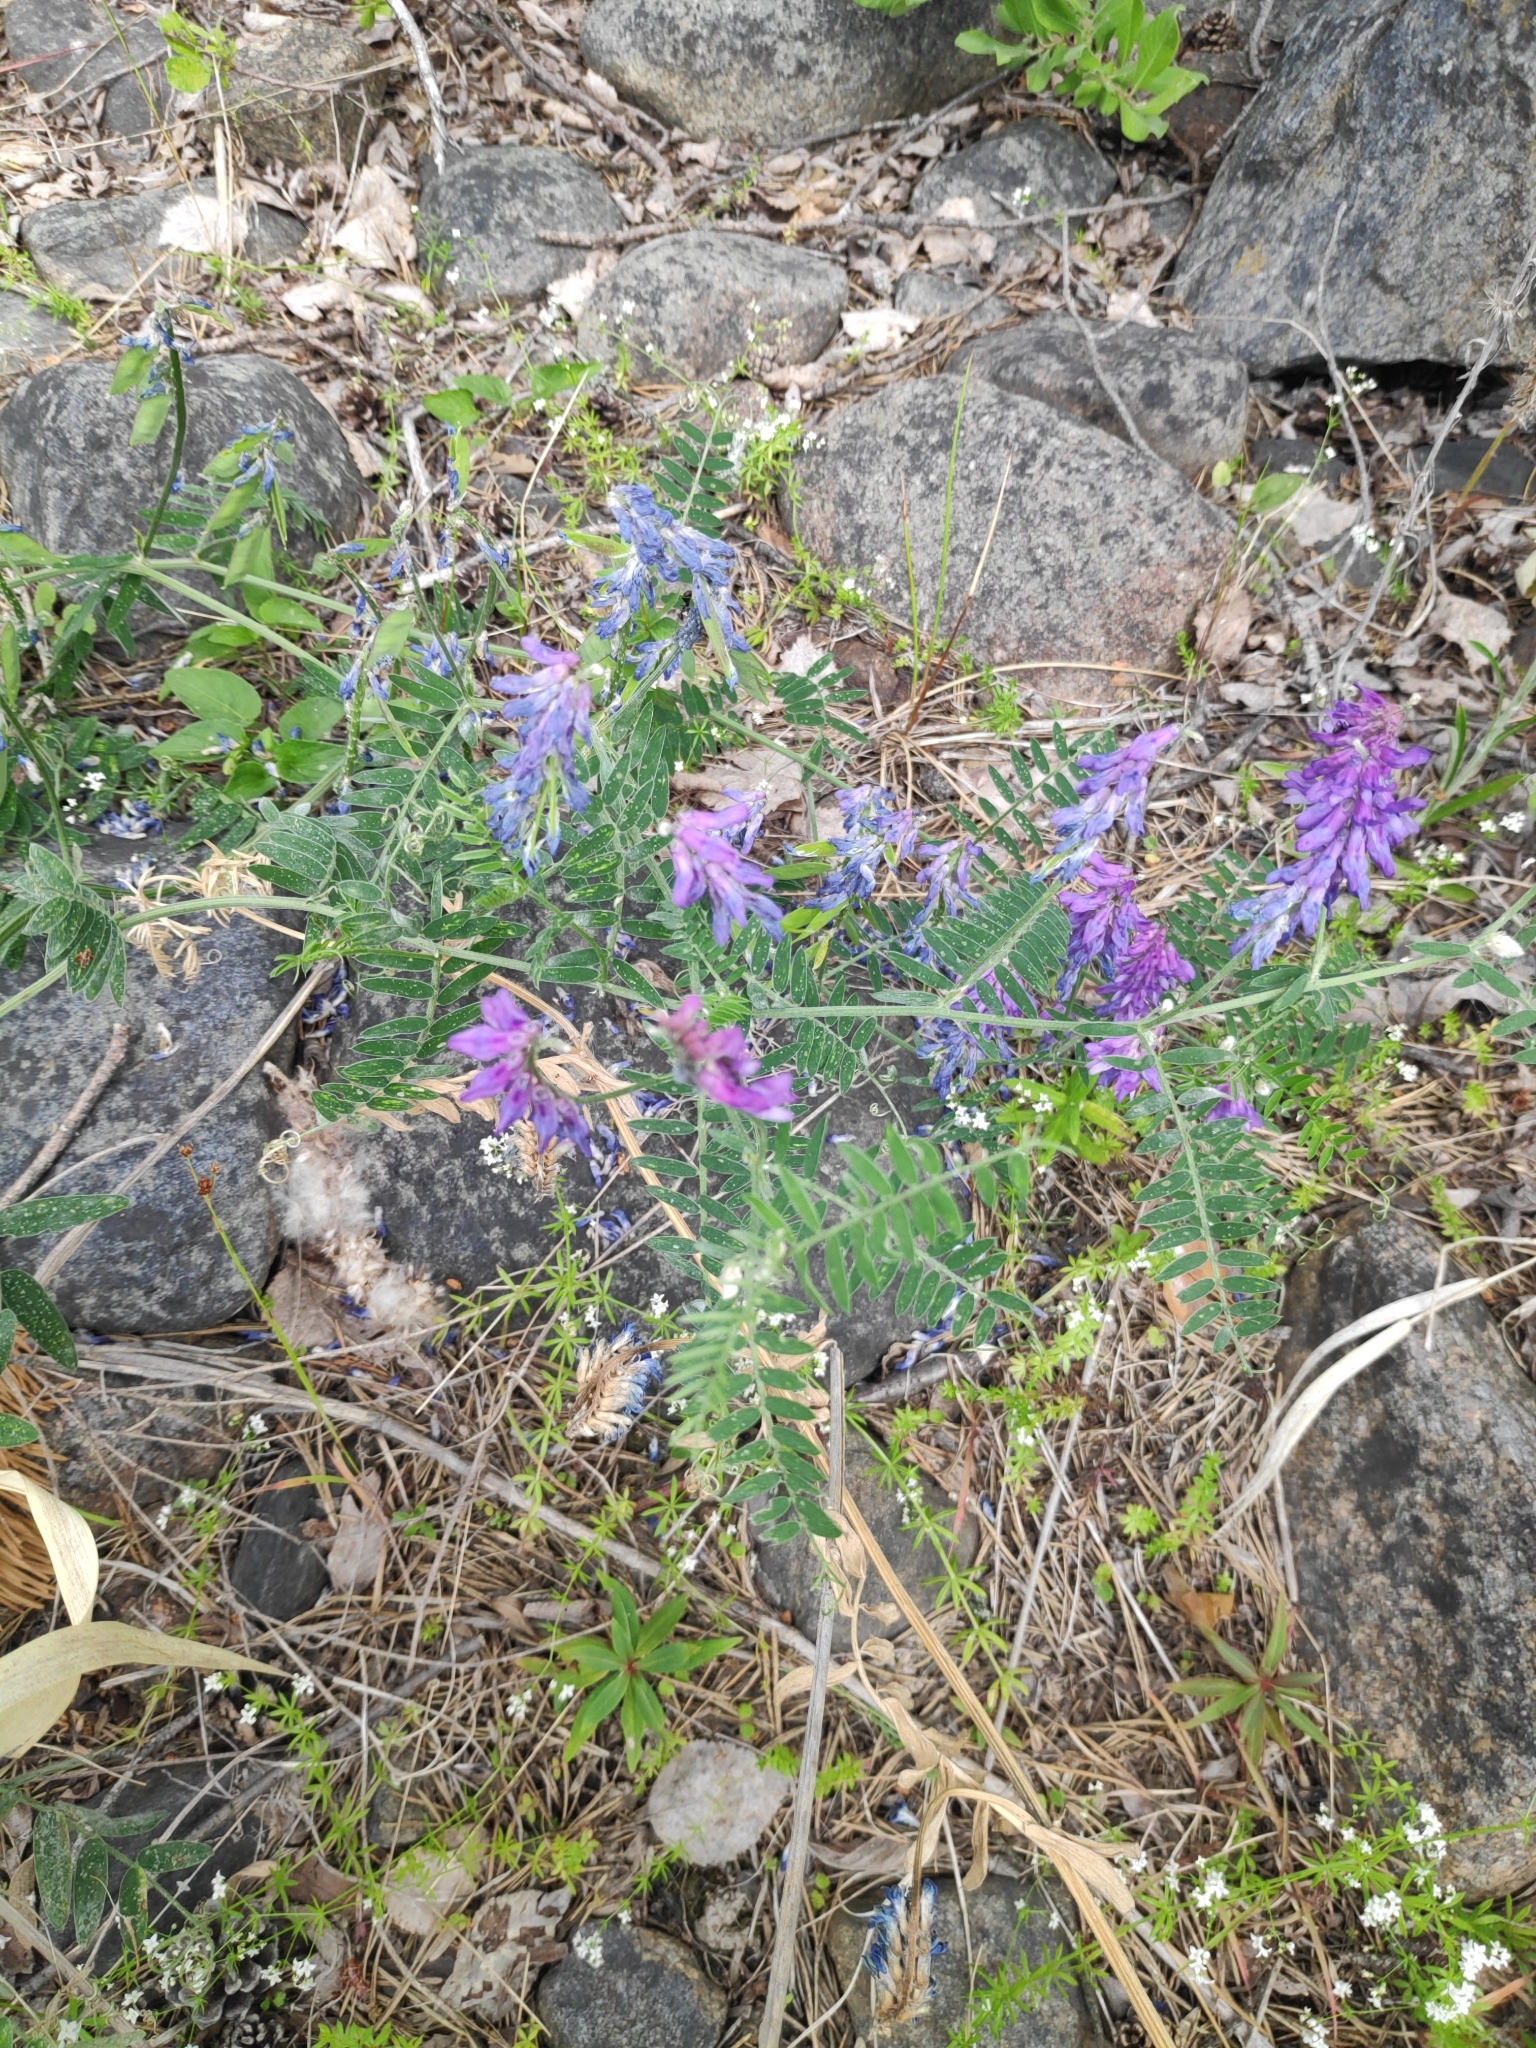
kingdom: Plantae
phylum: Tracheophyta
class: Magnoliopsida
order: Fabales
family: Fabaceae
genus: Vicia
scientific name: Vicia cracca
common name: Bird vetch
